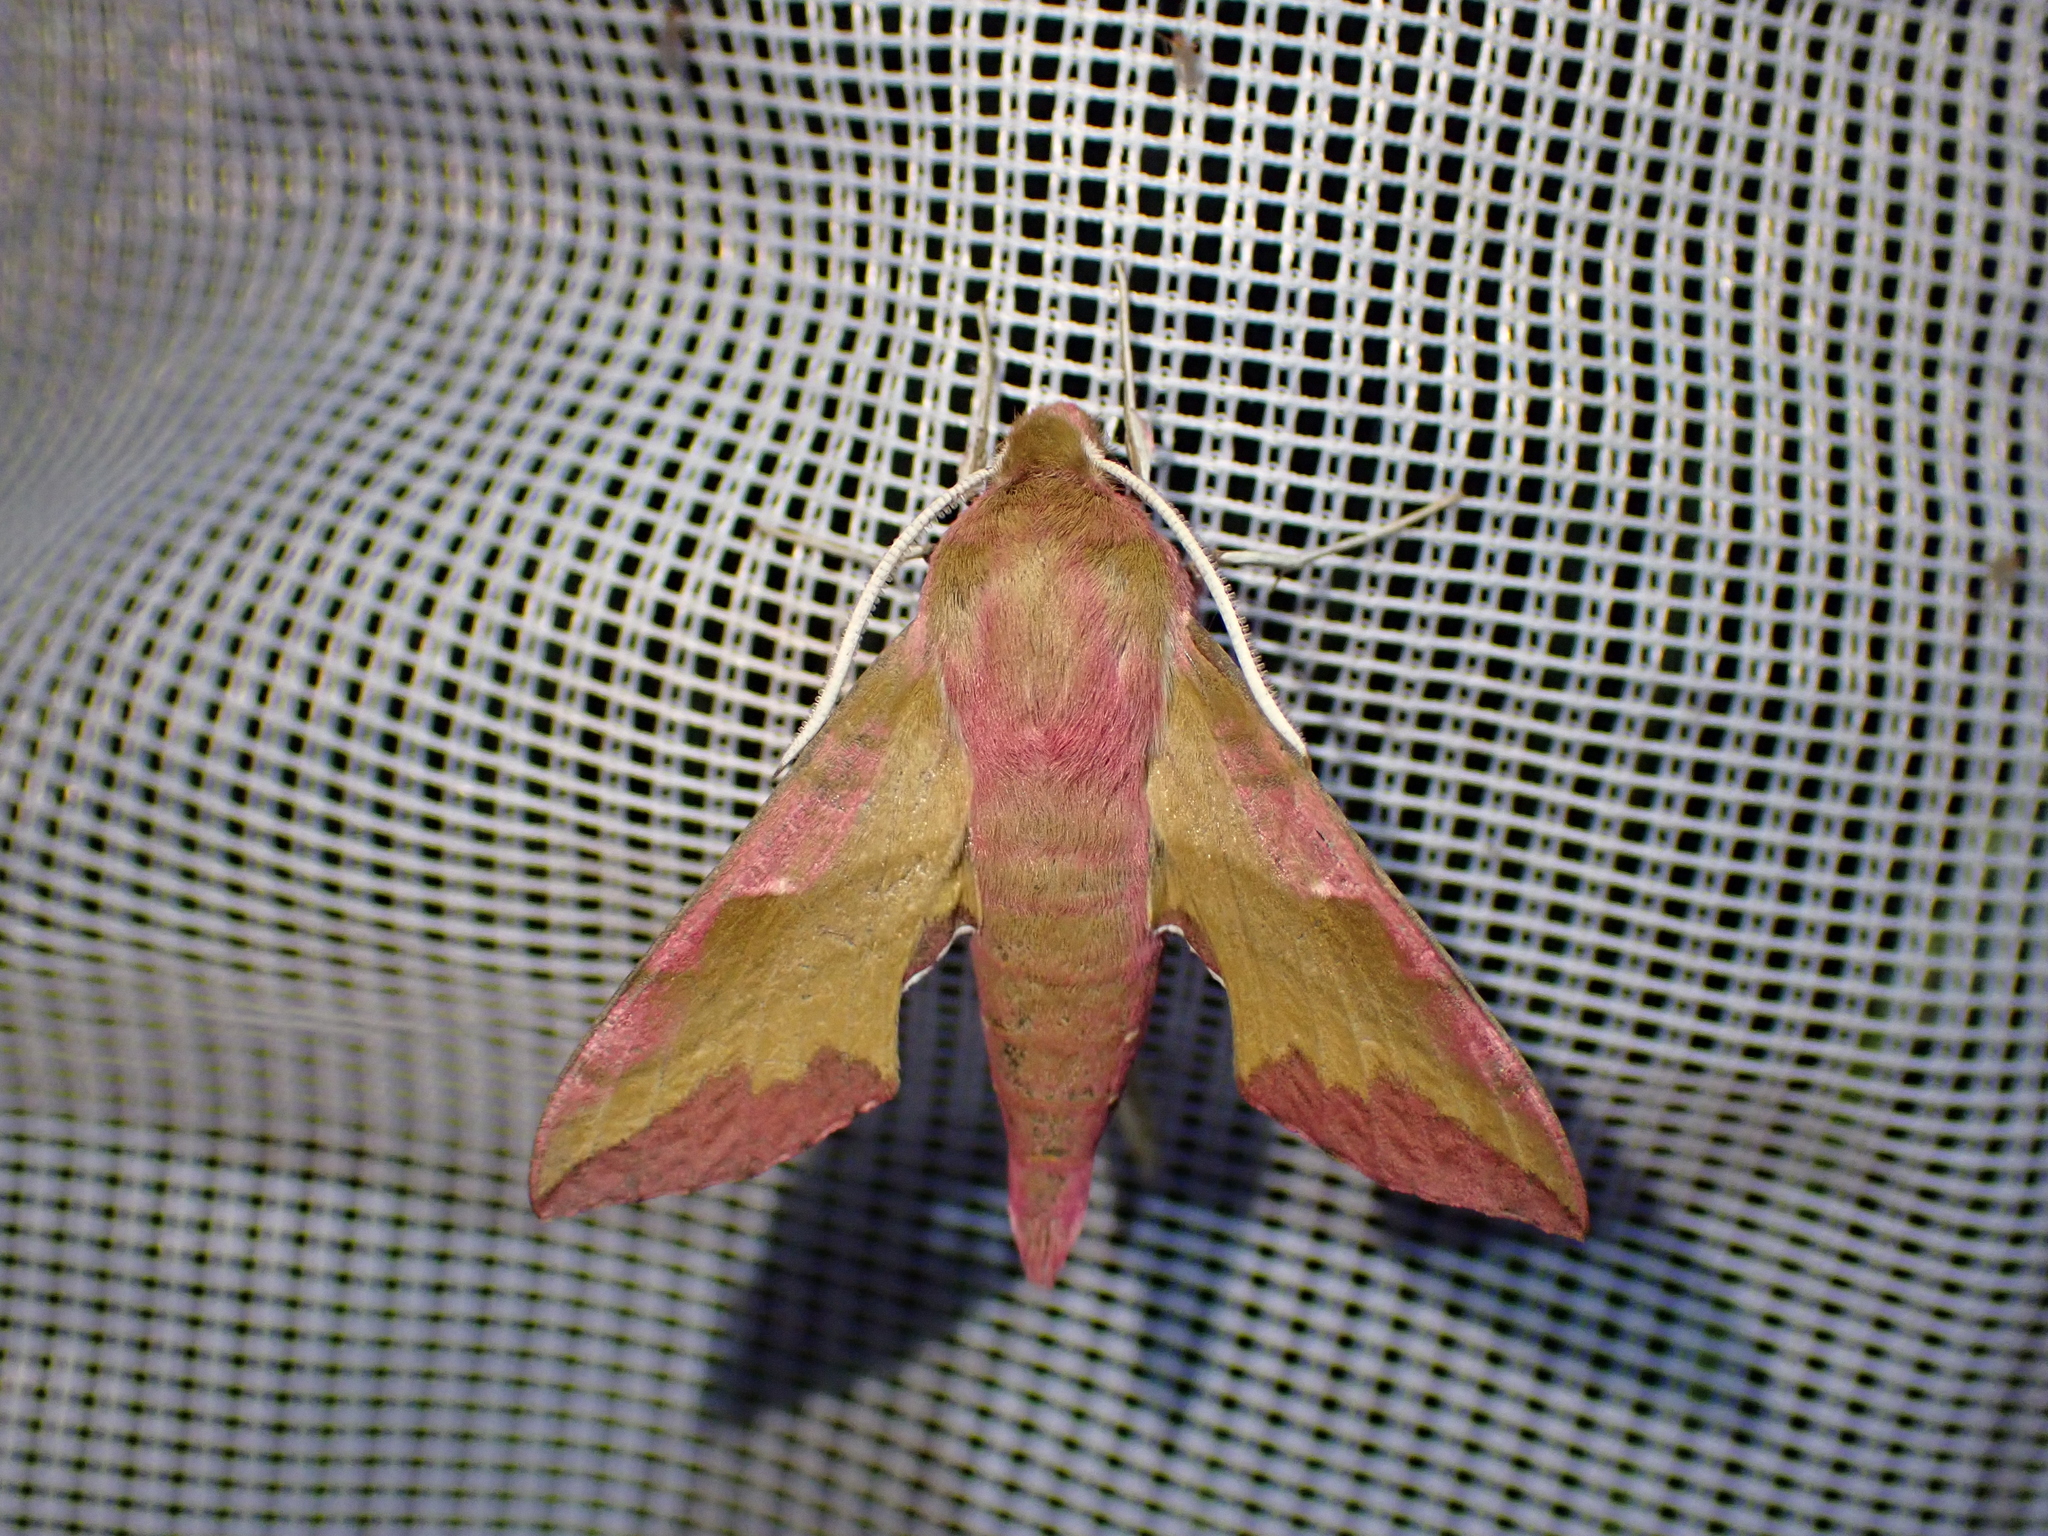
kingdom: Animalia
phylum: Arthropoda
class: Insecta
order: Lepidoptera
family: Sphingidae
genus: Deilephila
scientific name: Deilephila porcellus
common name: Small elephant hawk-moth
